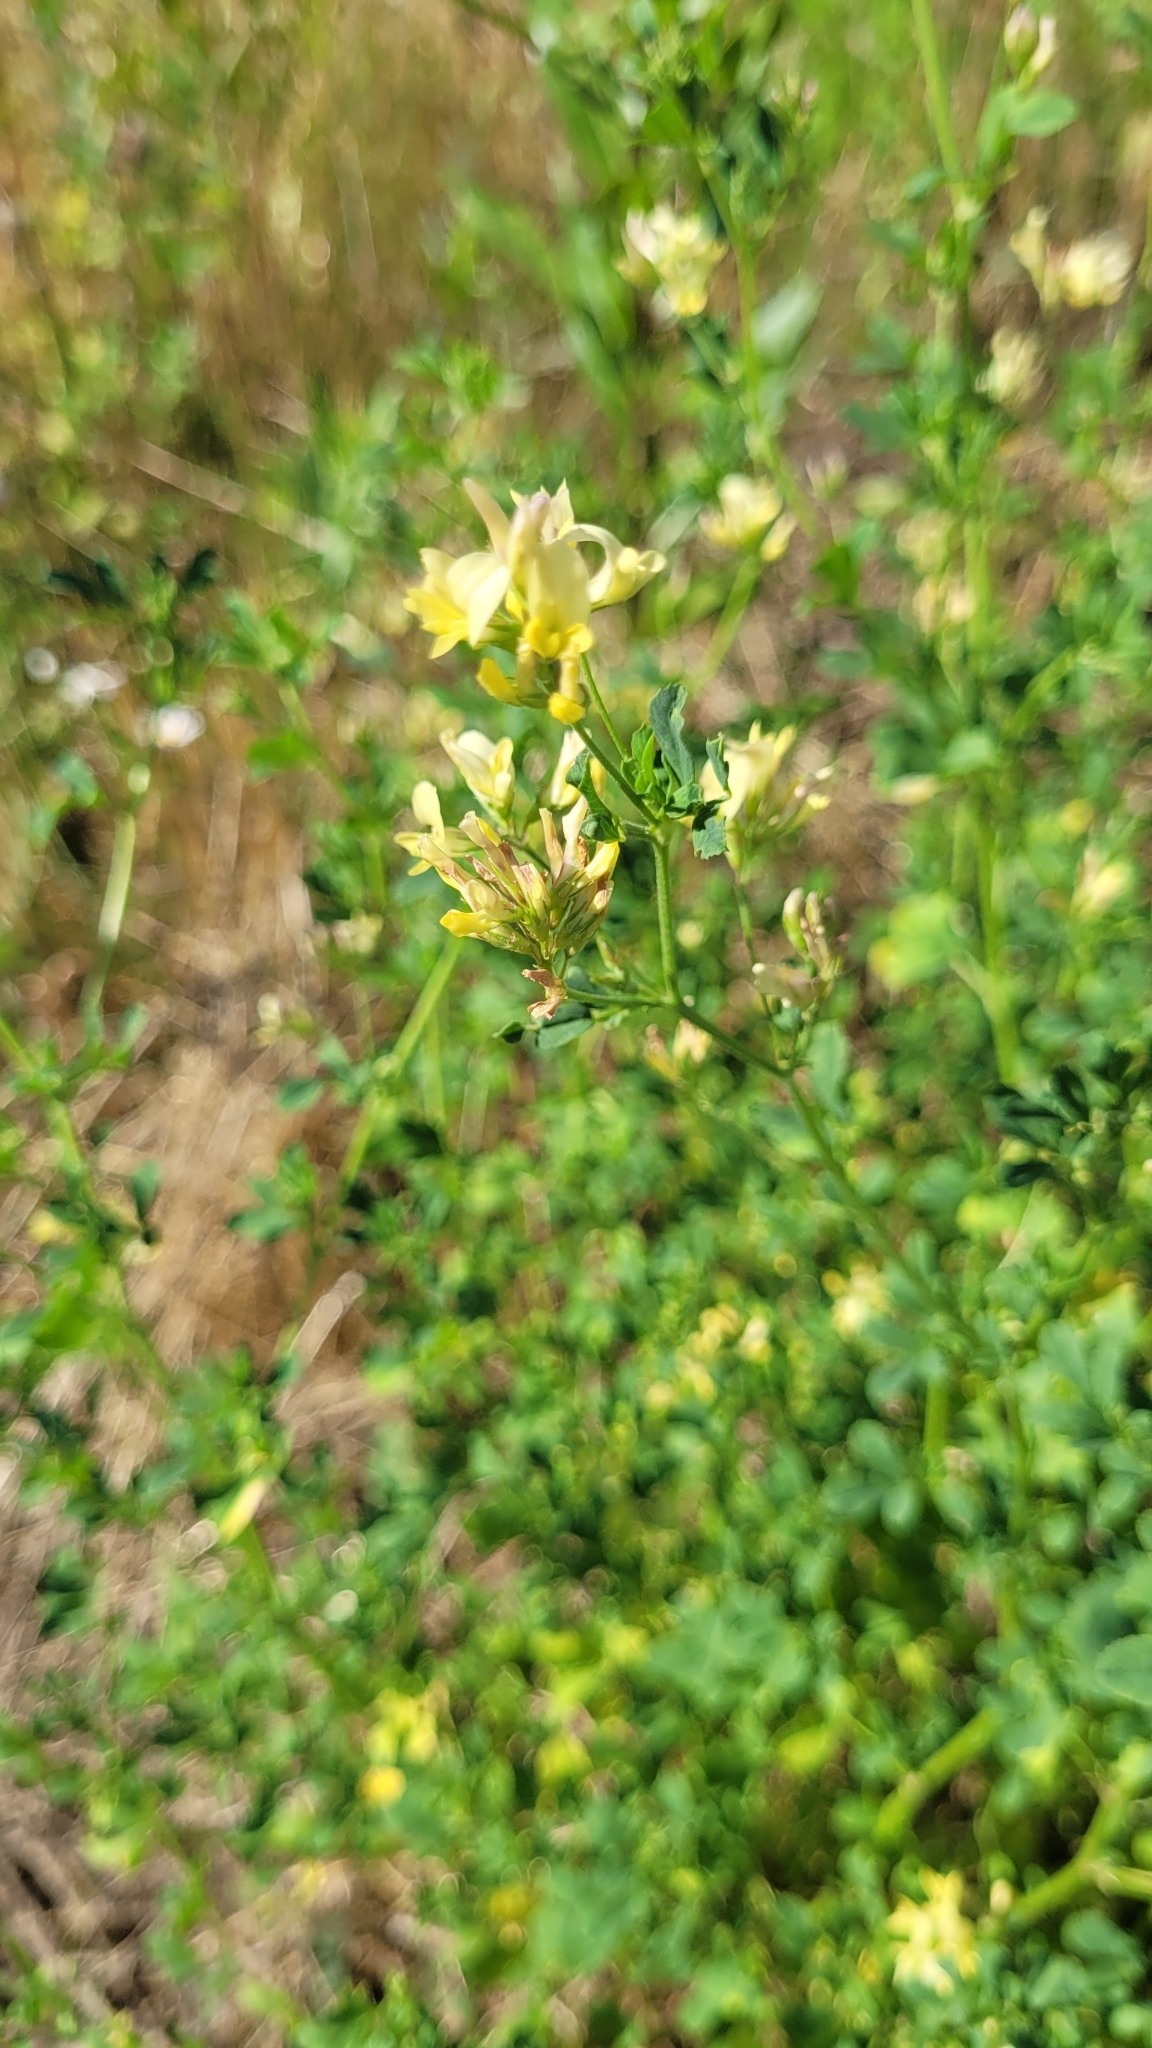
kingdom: Plantae
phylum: Tracheophyta
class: Magnoliopsida
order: Fabales
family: Fabaceae
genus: Medicago
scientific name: Medicago falcata
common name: Sickle medick
